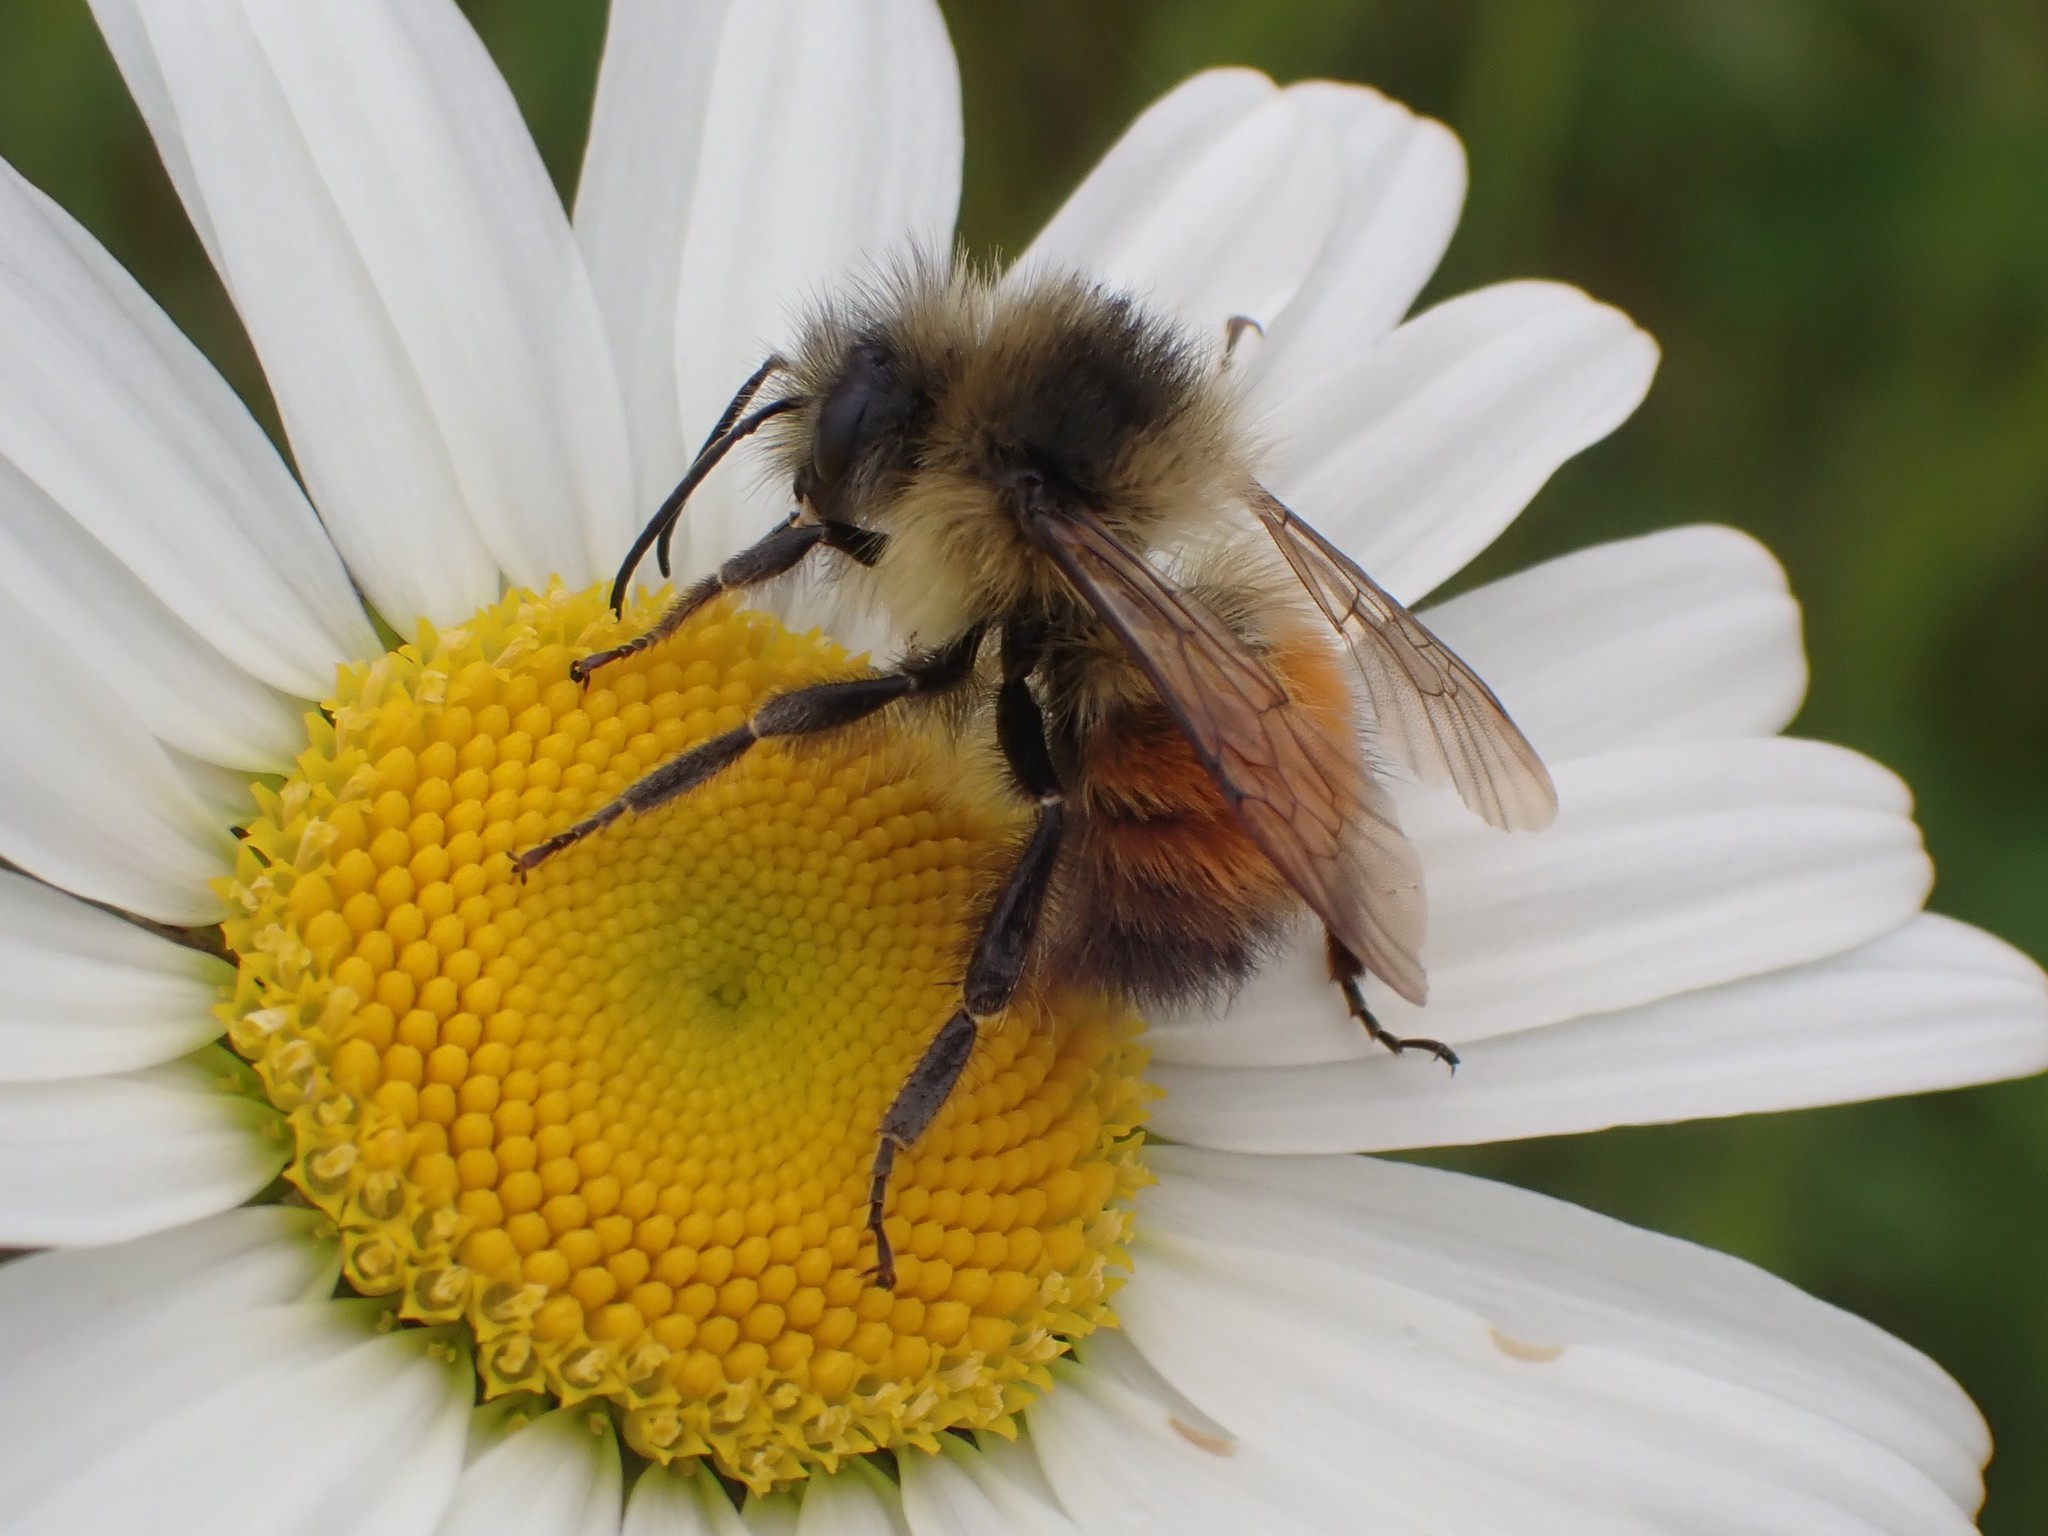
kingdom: Animalia
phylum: Arthropoda
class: Insecta
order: Hymenoptera
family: Apidae
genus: Bombus
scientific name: Bombus melanopygus
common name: Black tail bumble bee
